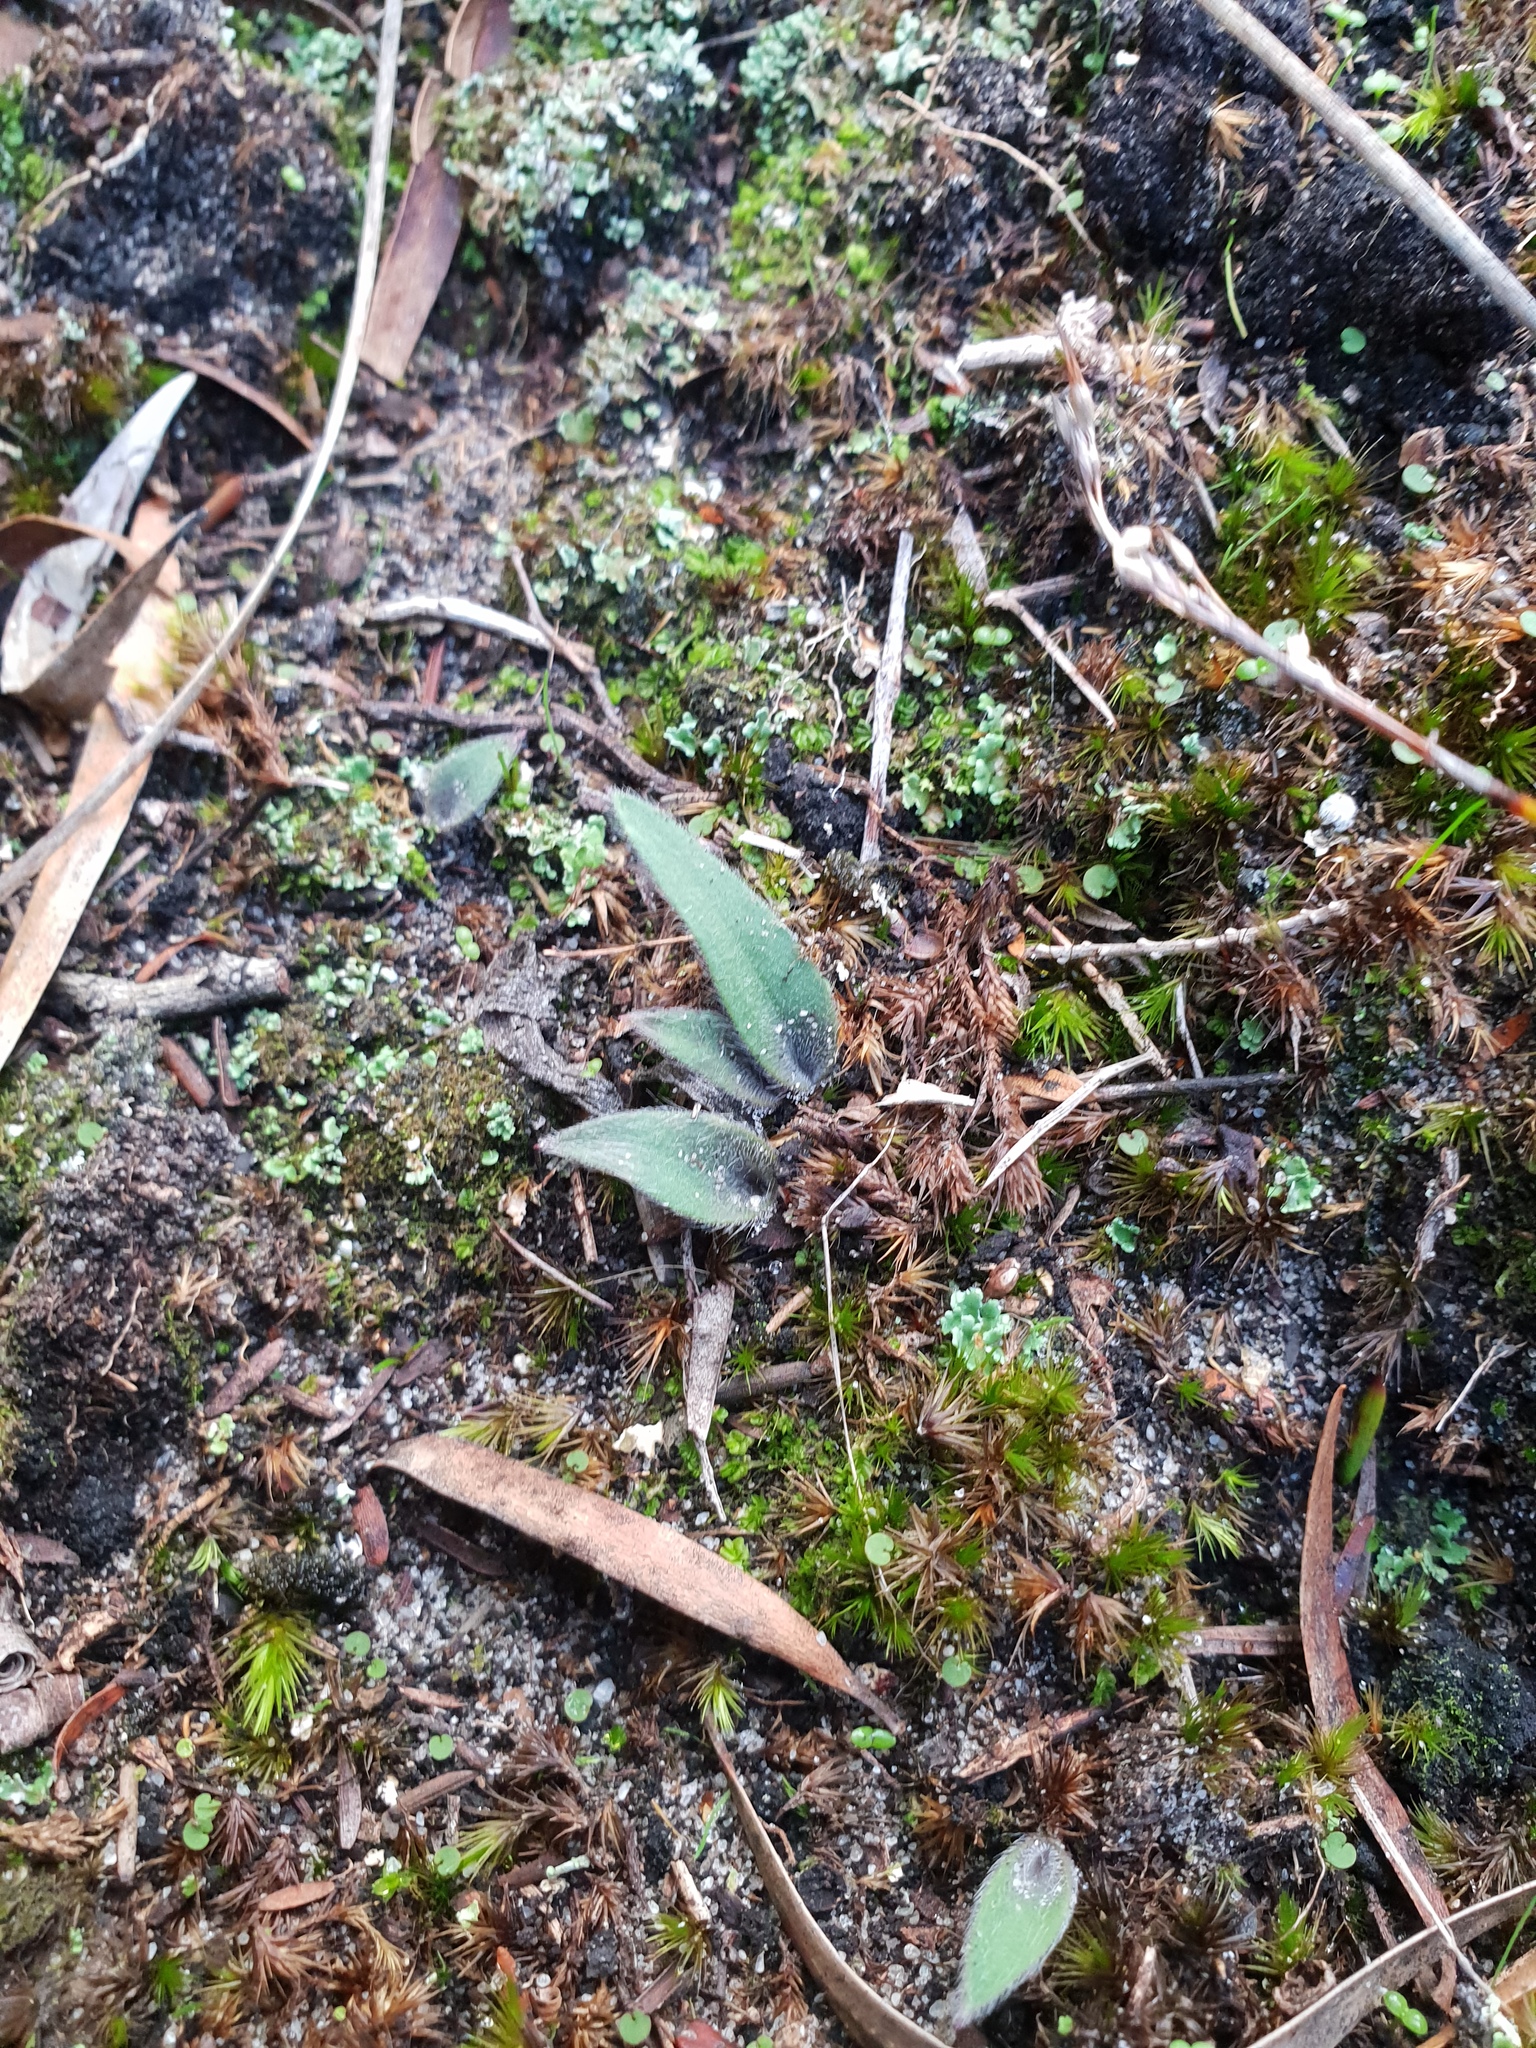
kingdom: Plantae
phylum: Tracheophyta
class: Liliopsida
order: Asparagales
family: Orchidaceae
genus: Caladenia
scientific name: Caladenia flava
